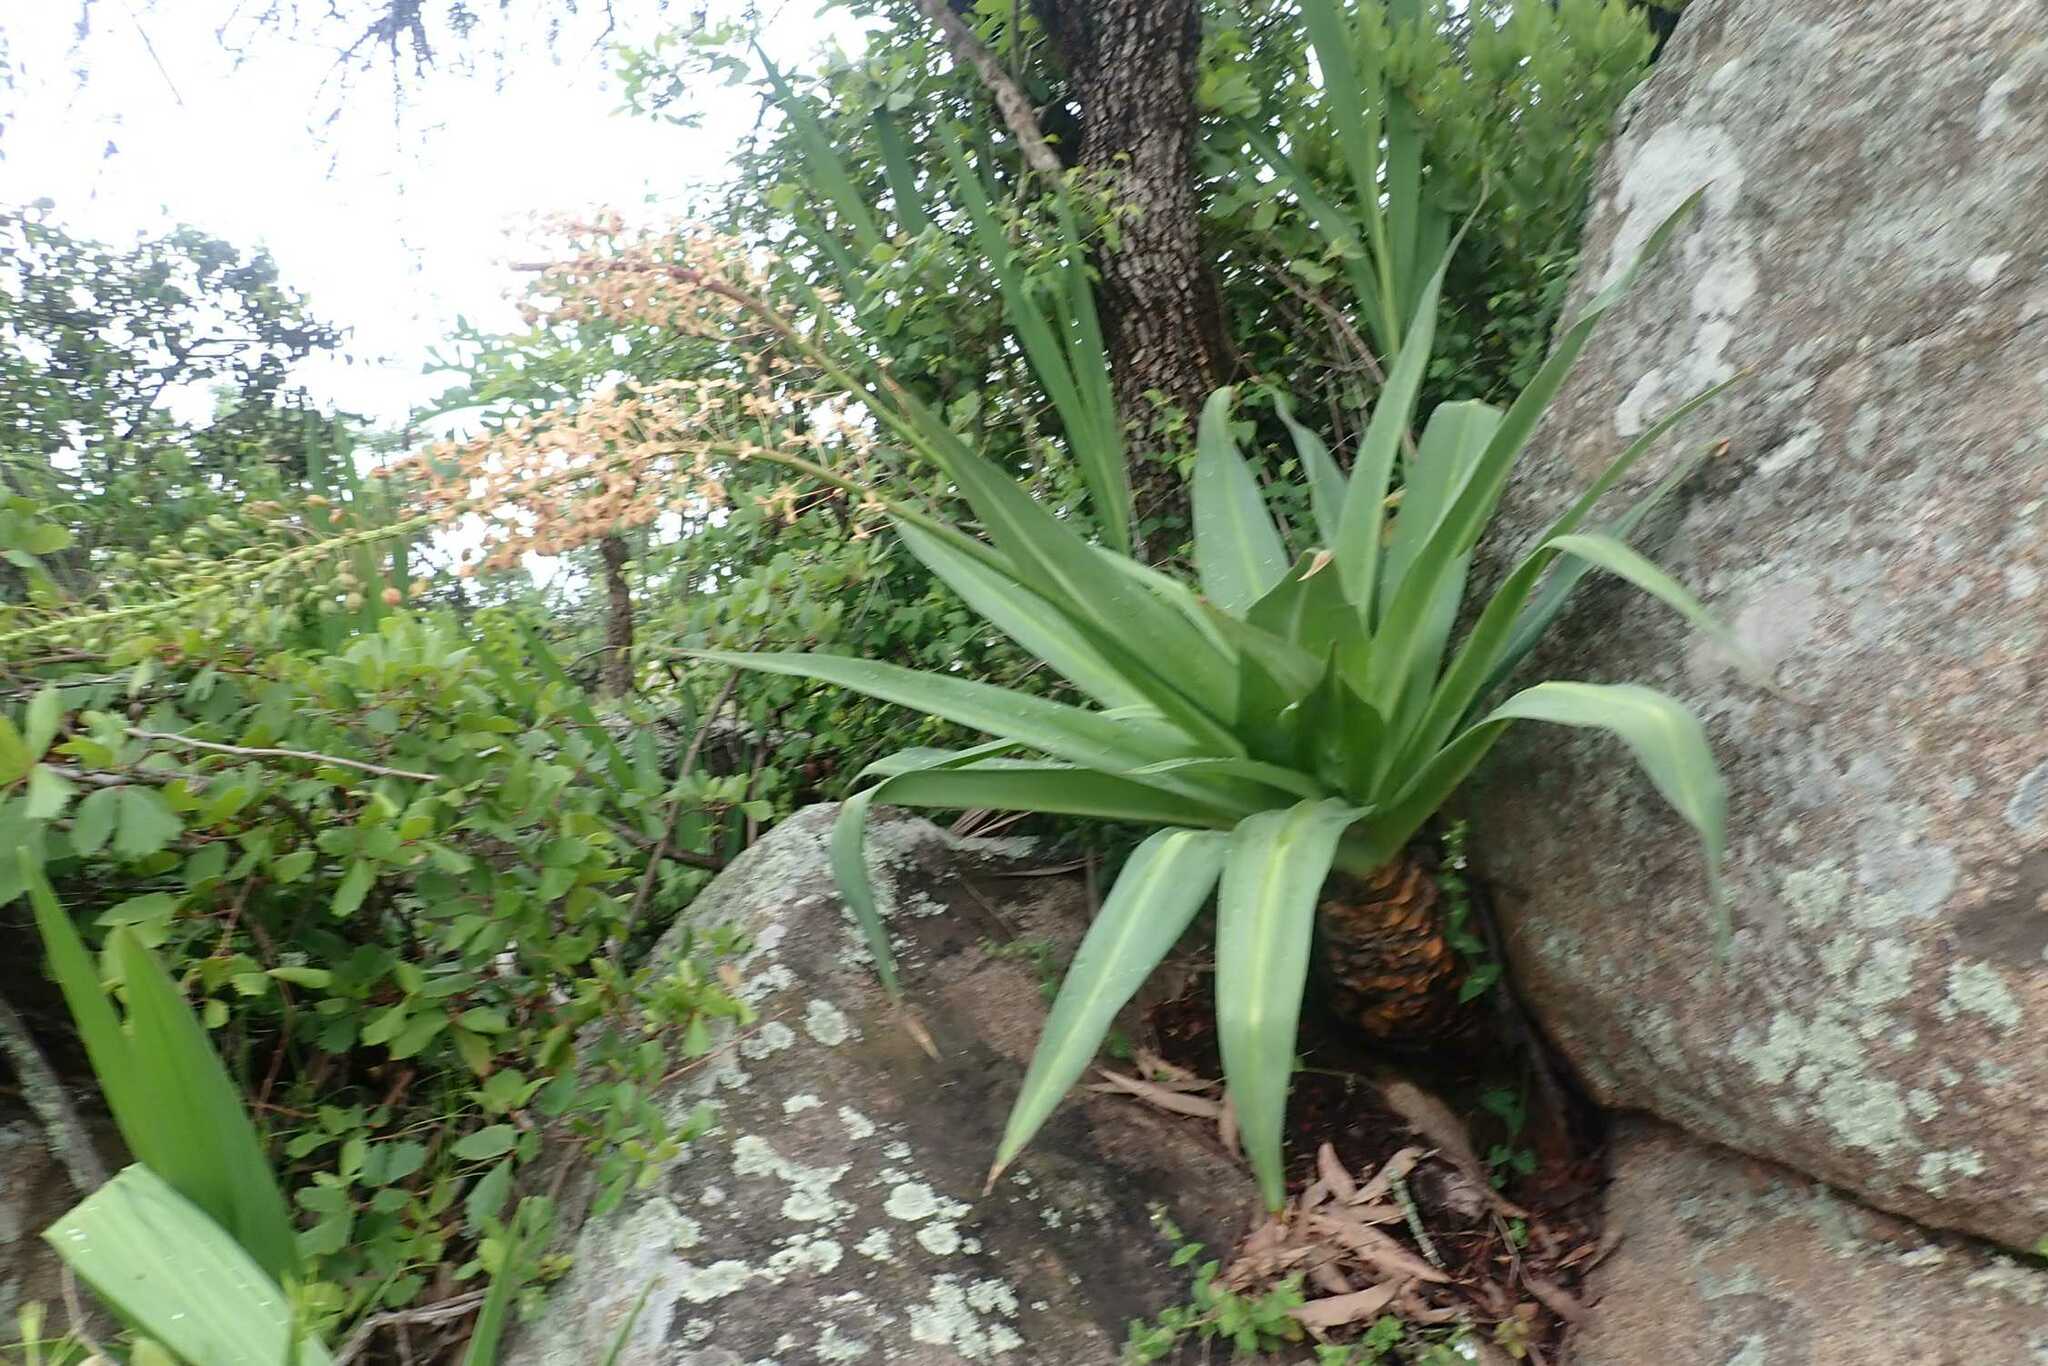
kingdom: Plantae
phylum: Tracheophyta
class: Liliopsida
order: Asparagales
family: Asparagaceae
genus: Merwilla
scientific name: Merwilla plumbea
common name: Blue-squill
